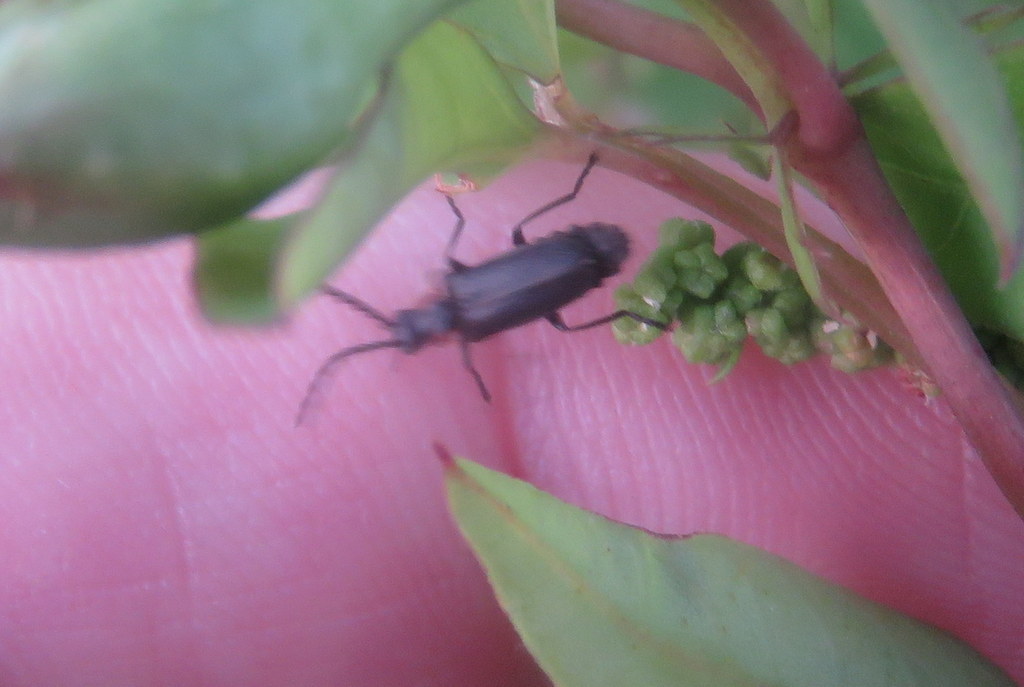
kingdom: Animalia
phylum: Arthropoda
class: Insecta
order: Coleoptera
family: Cantharidae
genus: Polemius
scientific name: Polemius
